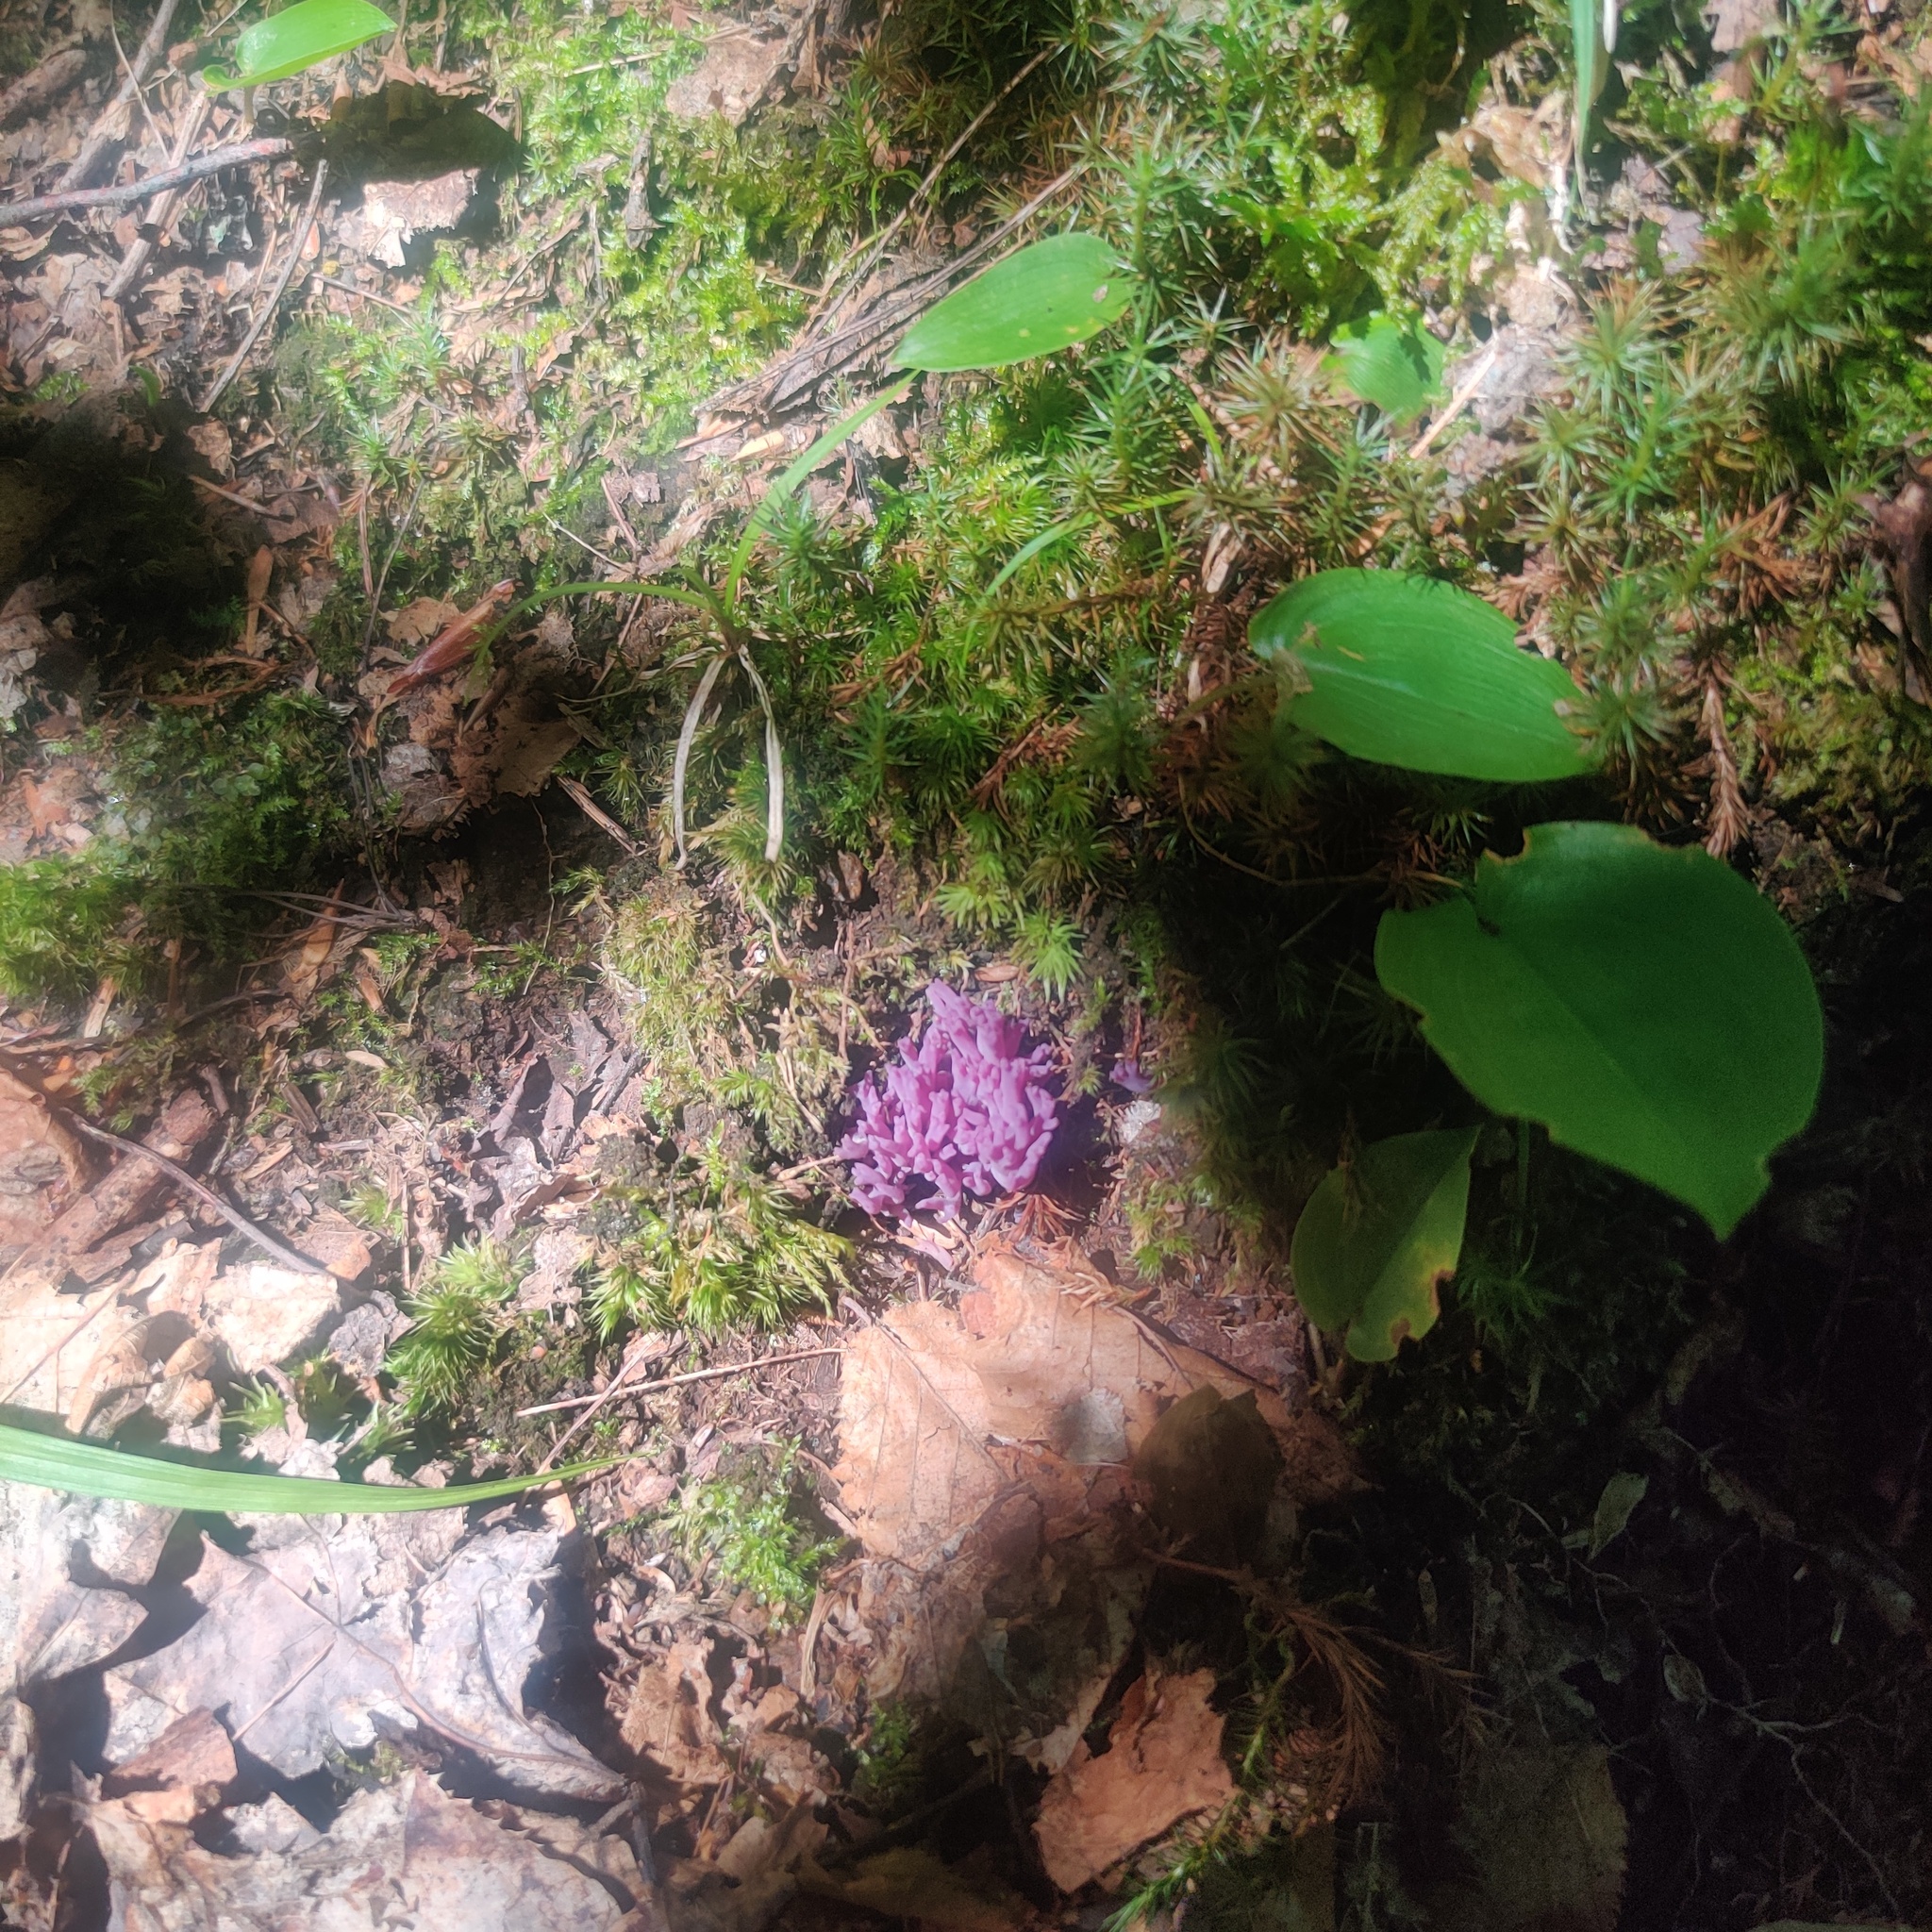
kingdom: Fungi
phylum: Basidiomycota
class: Agaricomycetes
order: Agaricales
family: Clavariaceae
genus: Clavaria
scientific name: Clavaria zollingeri
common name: Violet coral
